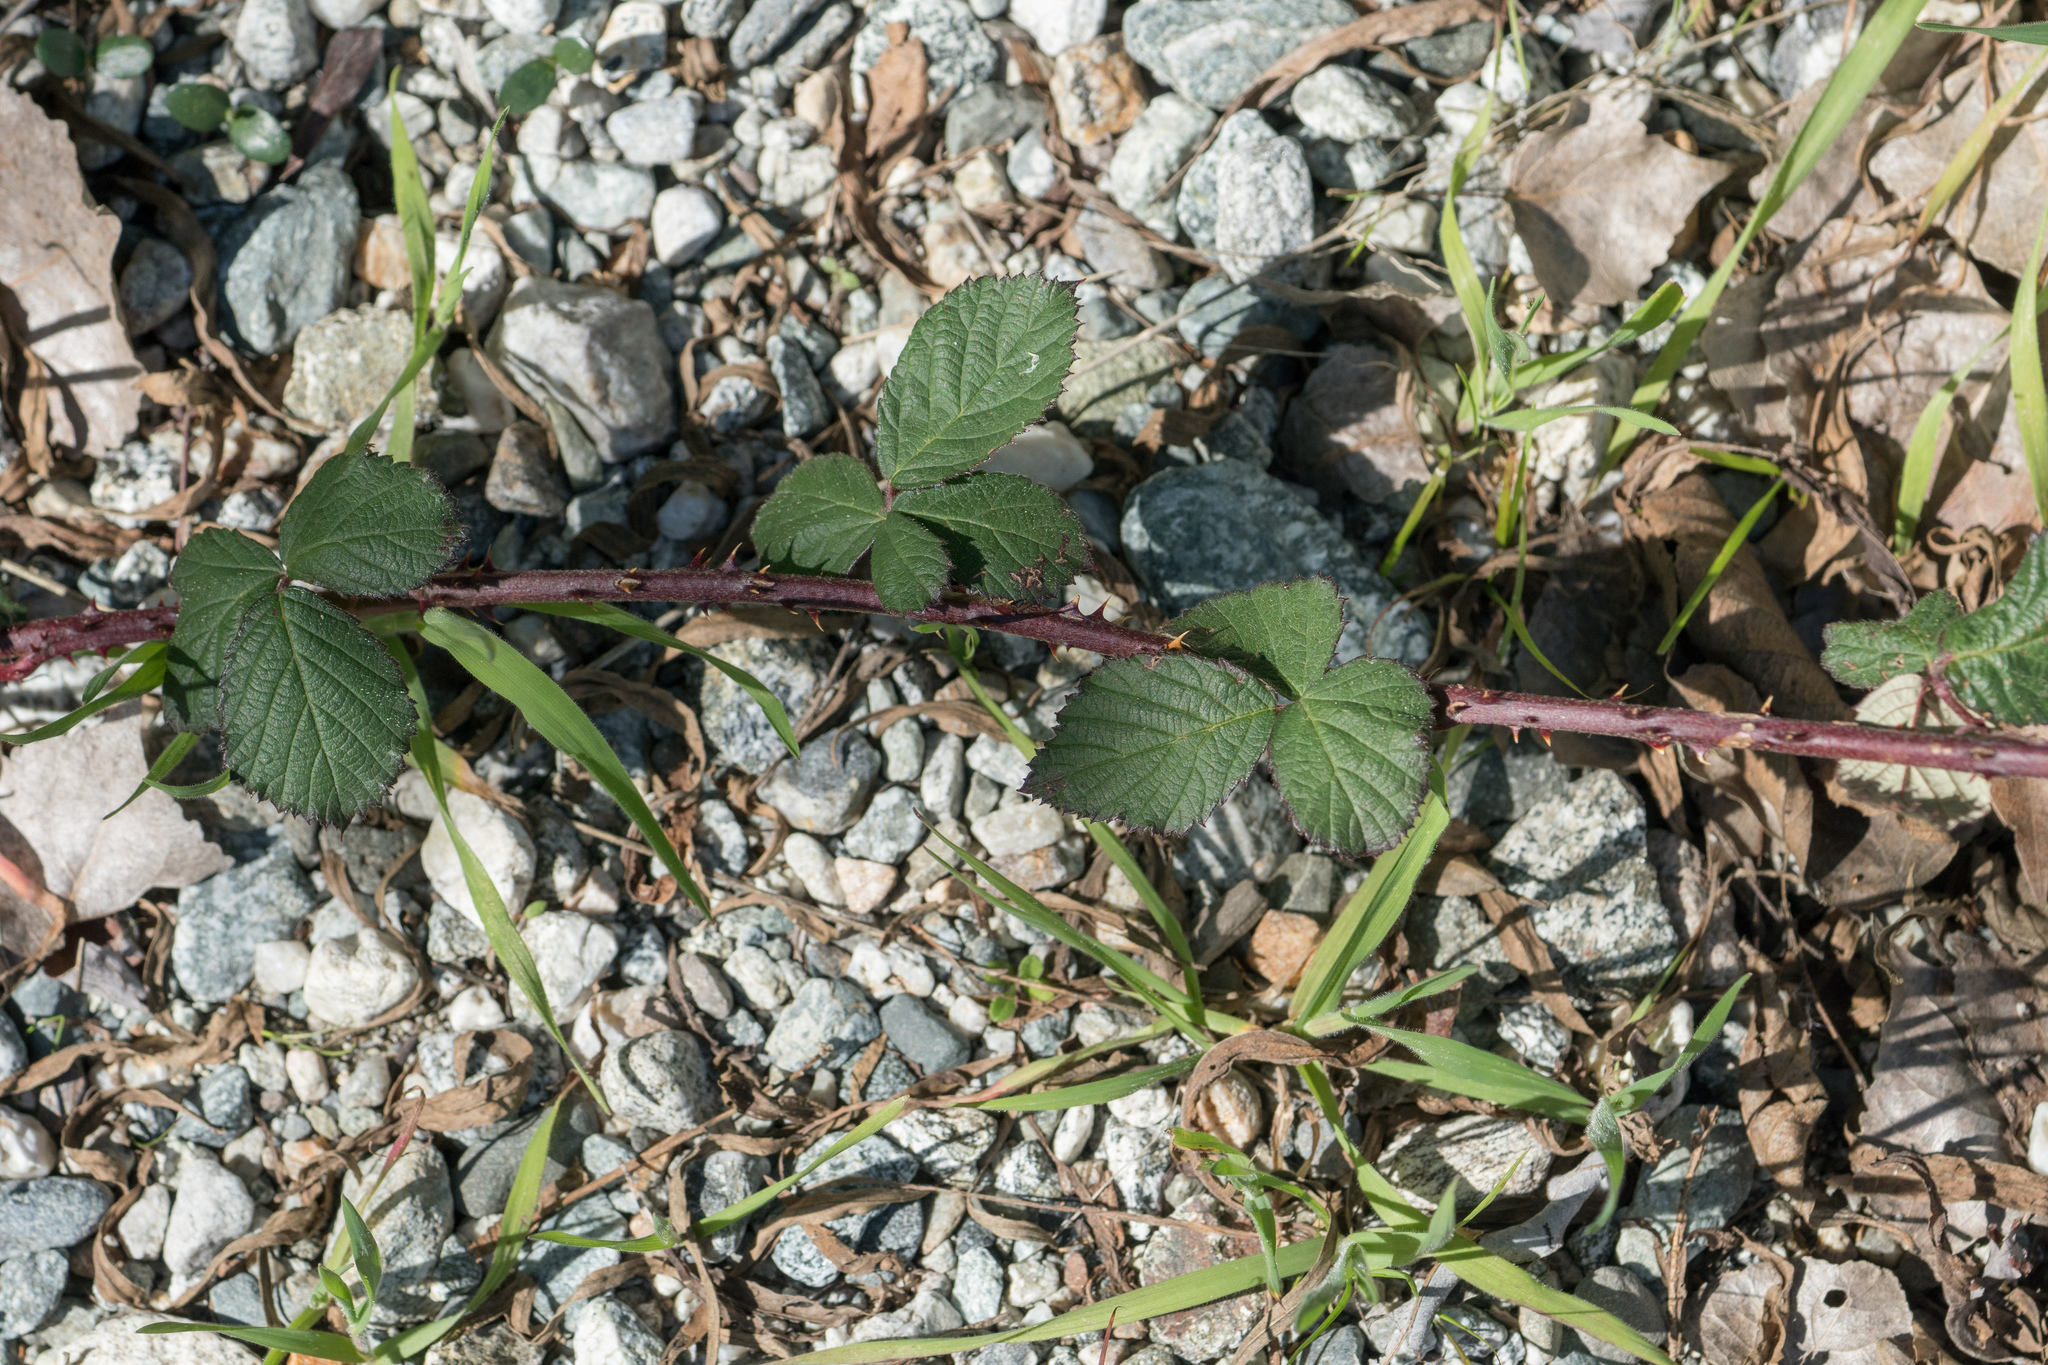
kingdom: Plantae
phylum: Tracheophyta
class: Magnoliopsida
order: Rosales
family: Rosaceae
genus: Rubus
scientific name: Rubus ursinus
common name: Pacific blackberry
